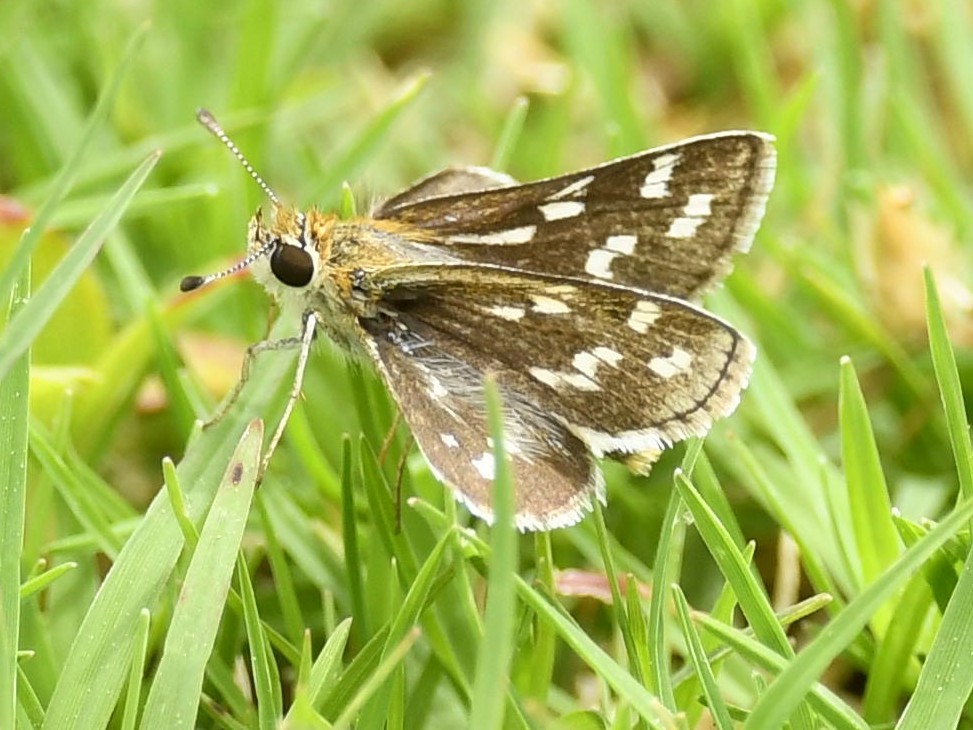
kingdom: Animalia
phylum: Arthropoda
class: Insecta
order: Lepidoptera
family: Hesperiidae
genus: Taractrocera
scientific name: Taractrocera maevius
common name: Common grass-dart
